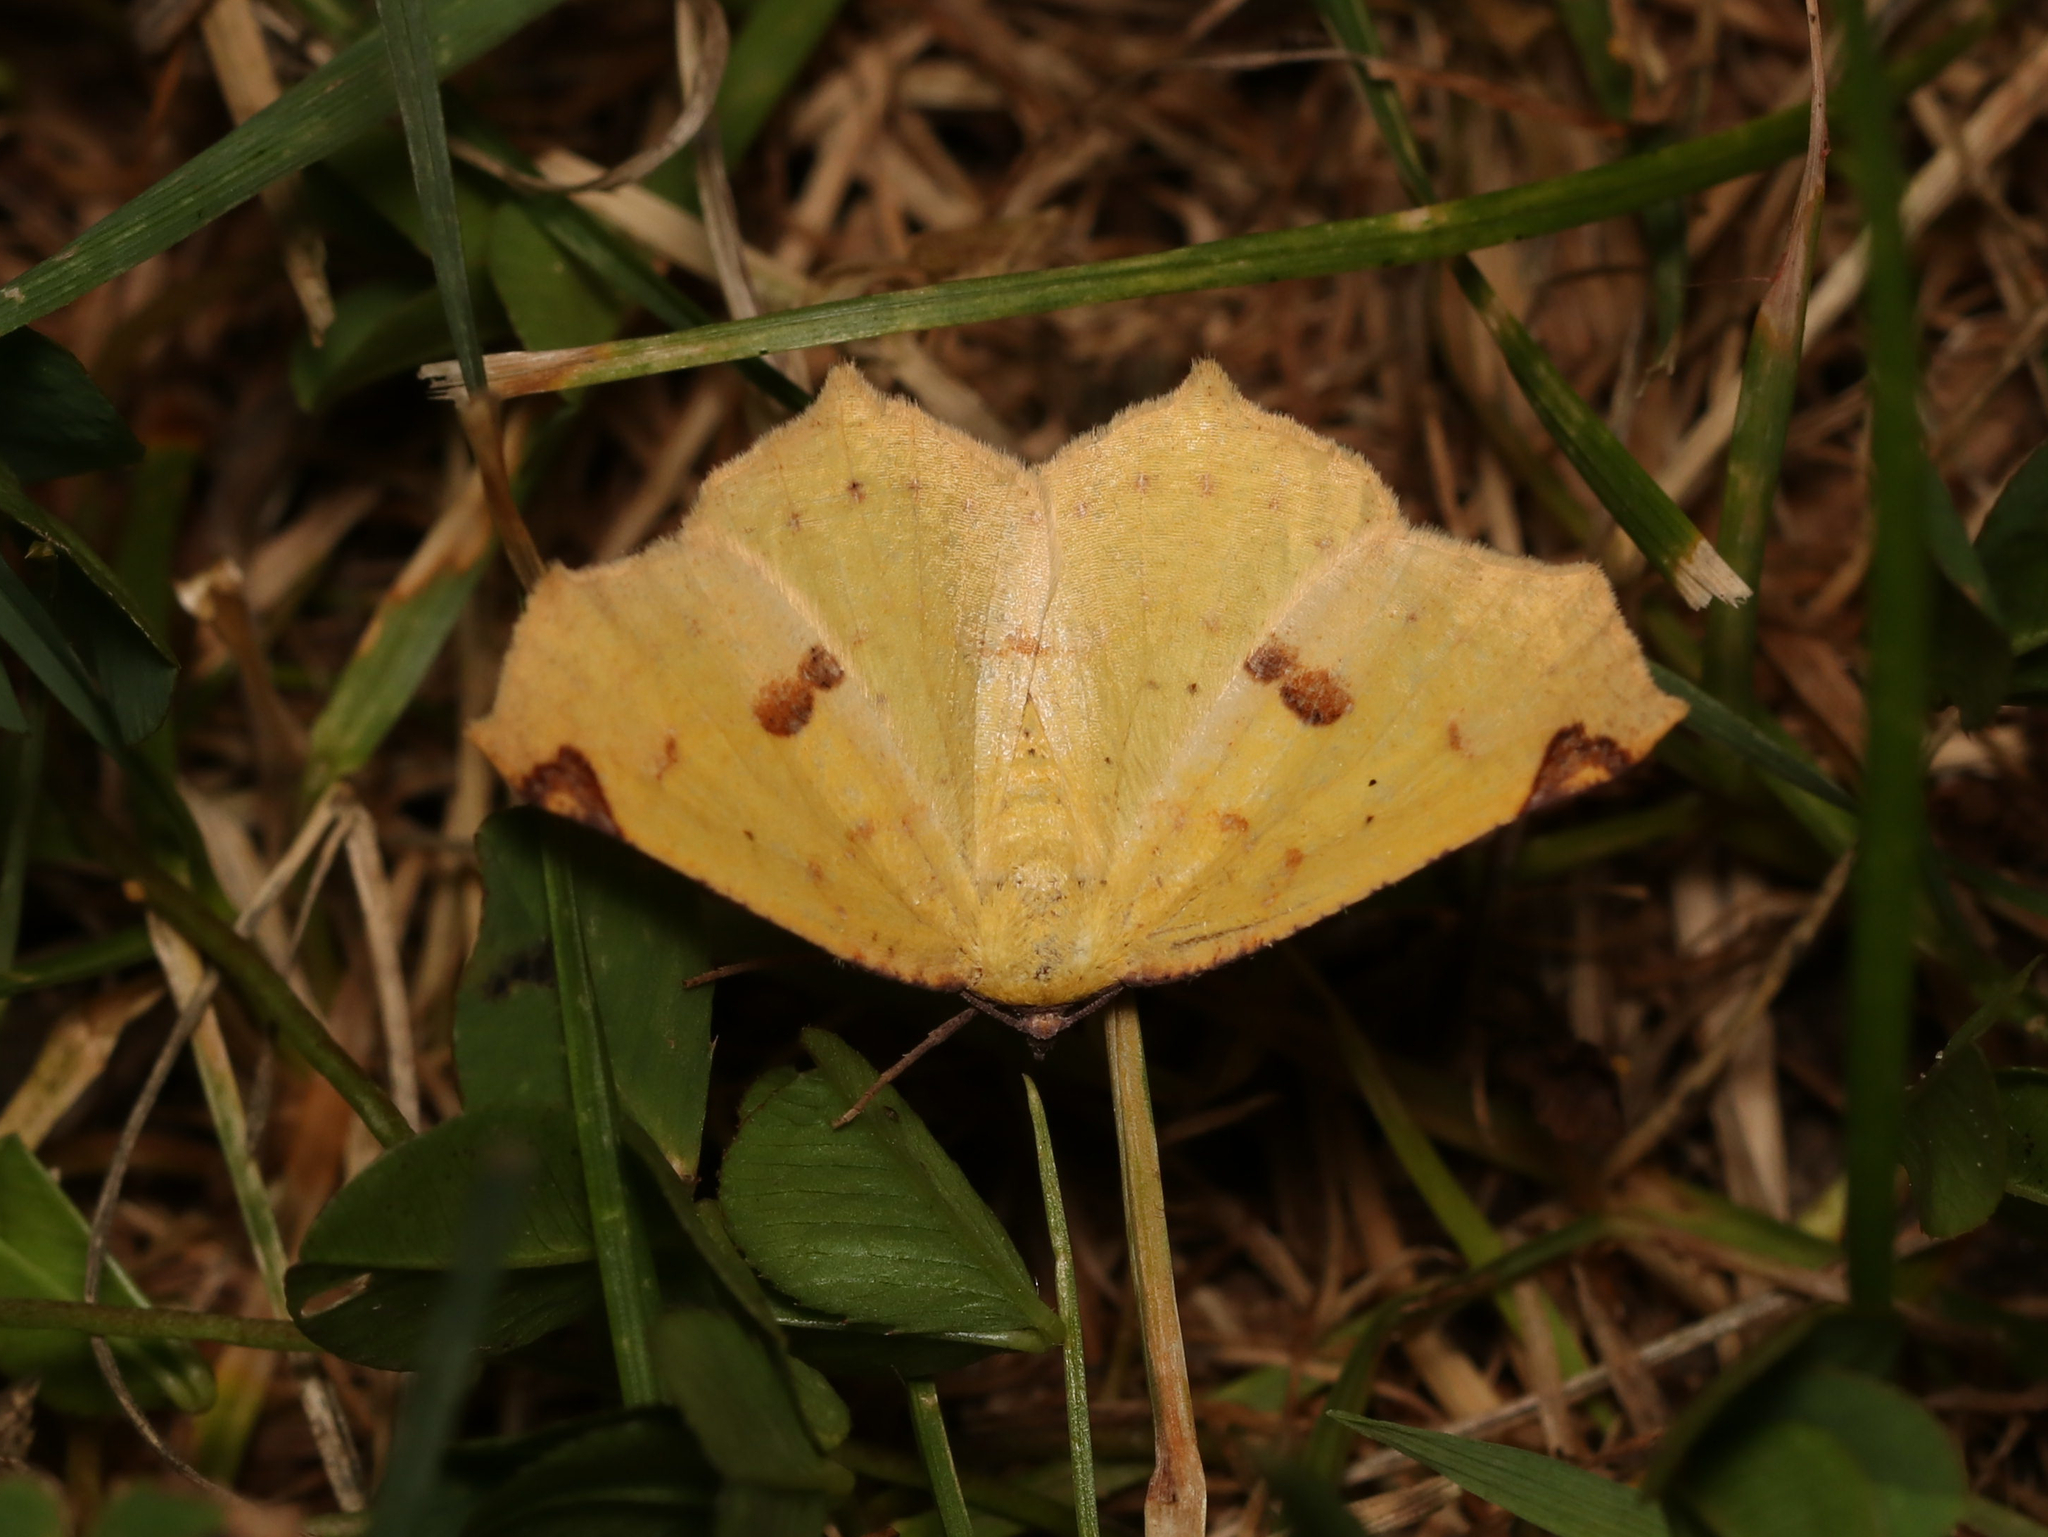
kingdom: Animalia
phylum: Arthropoda
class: Insecta
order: Lepidoptera
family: Geometridae
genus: Antepione
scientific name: Antepione thisoaria
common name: Variable antipione
